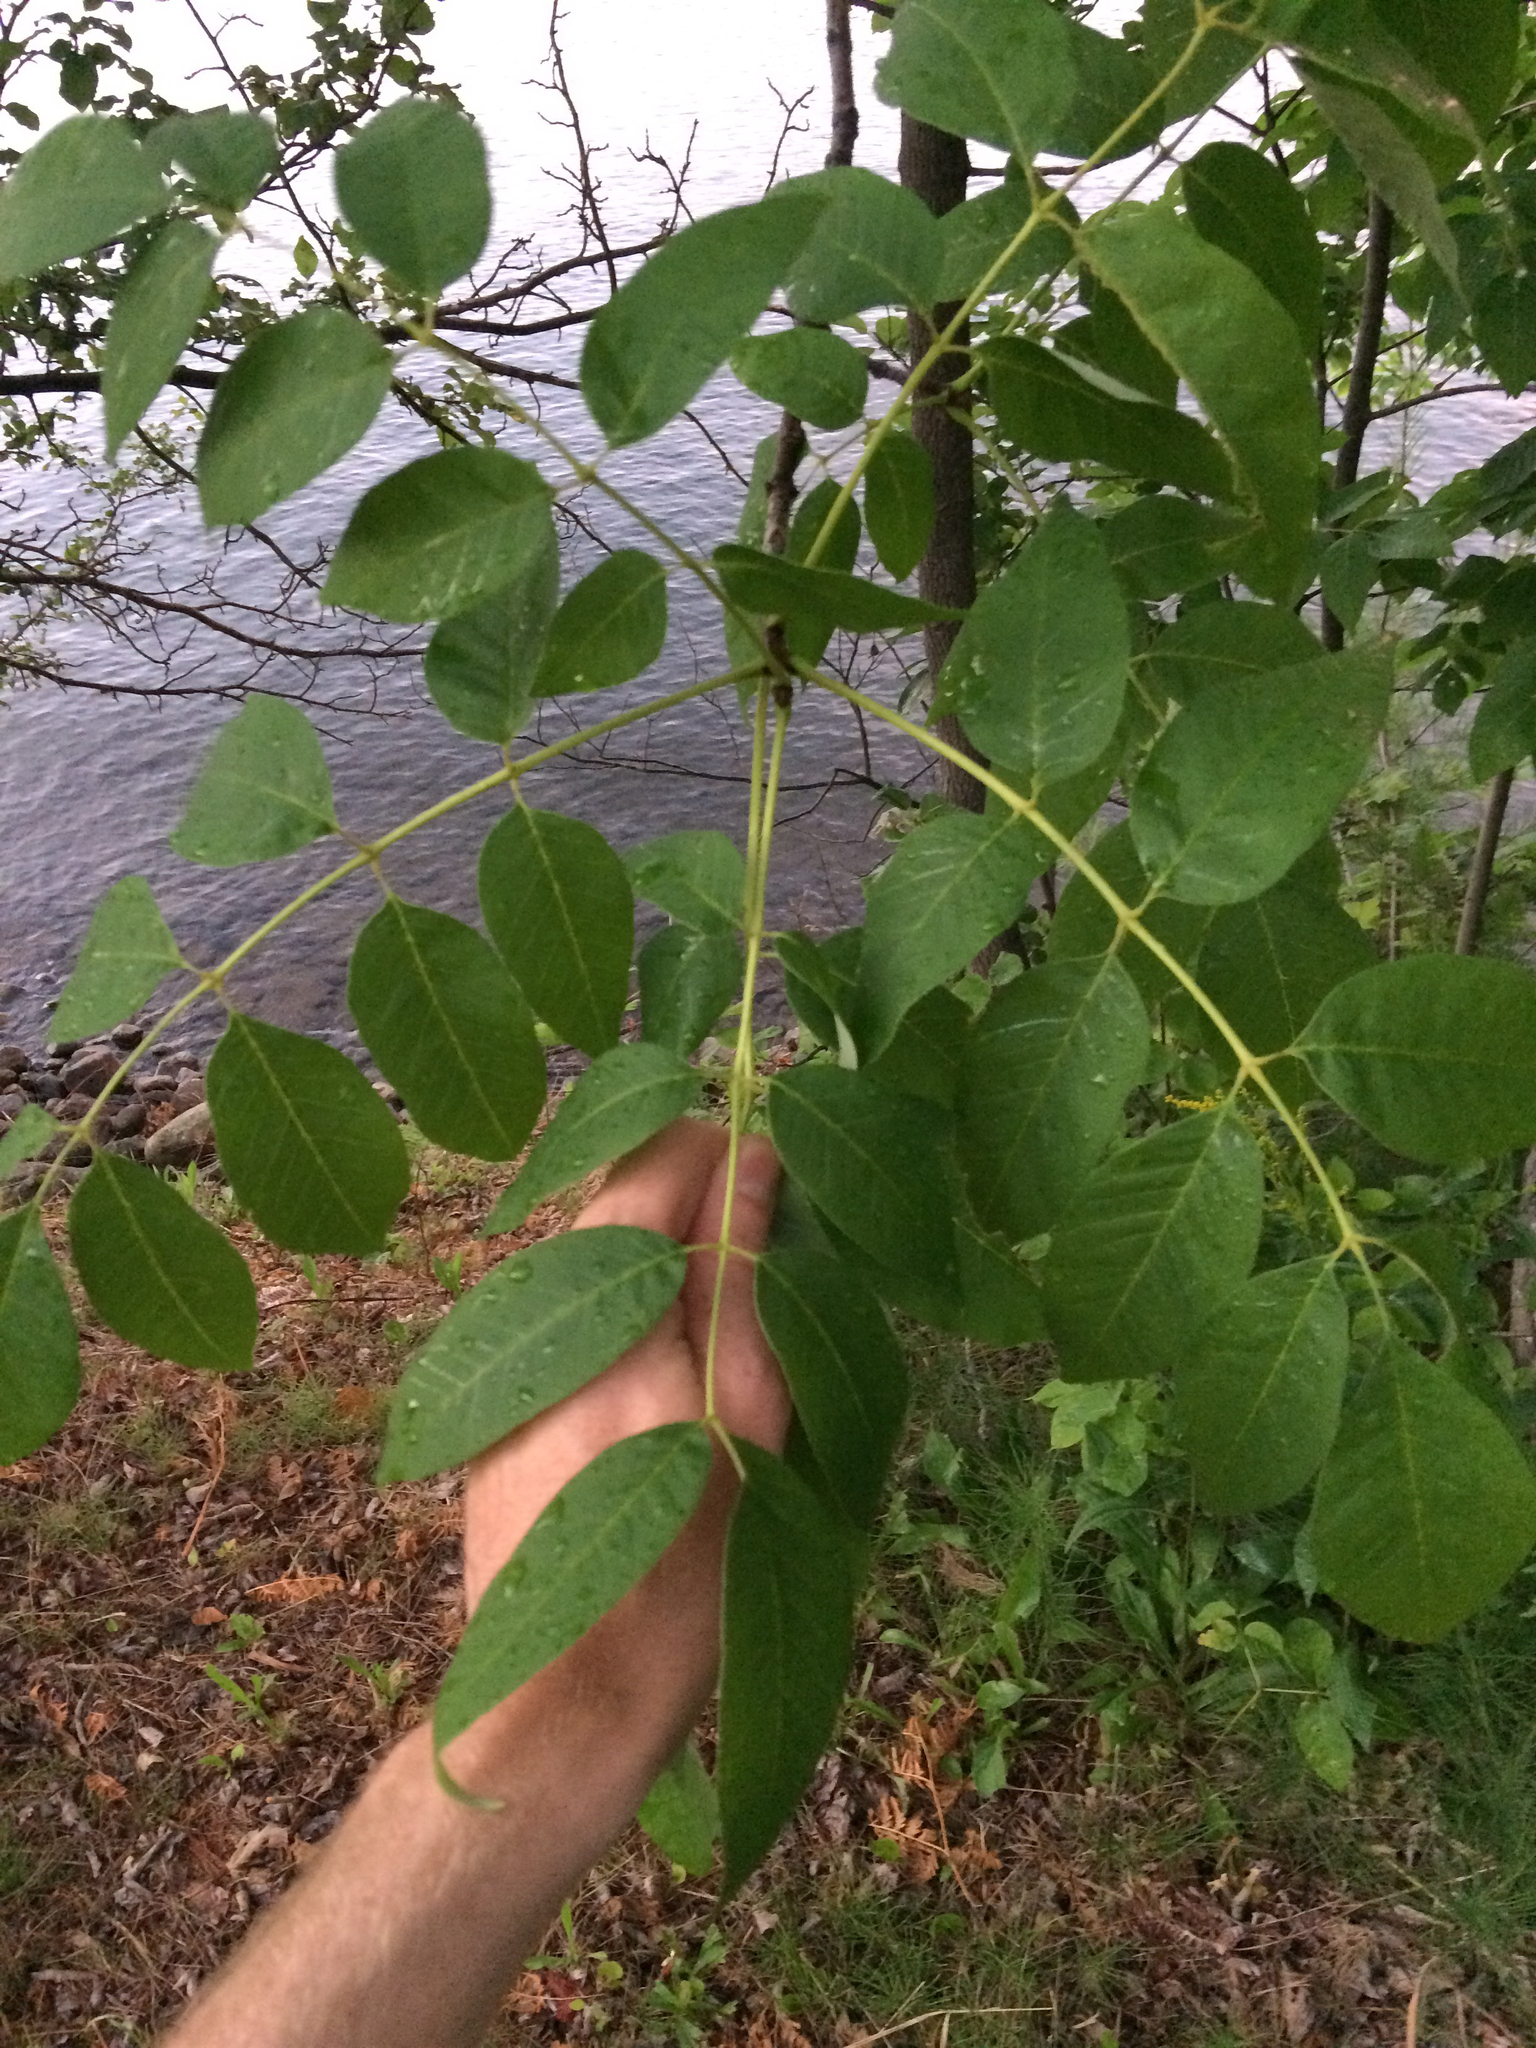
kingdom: Plantae
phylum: Tracheophyta
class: Magnoliopsida
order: Lamiales
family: Oleaceae
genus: Fraxinus
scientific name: Fraxinus americana
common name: White ash
